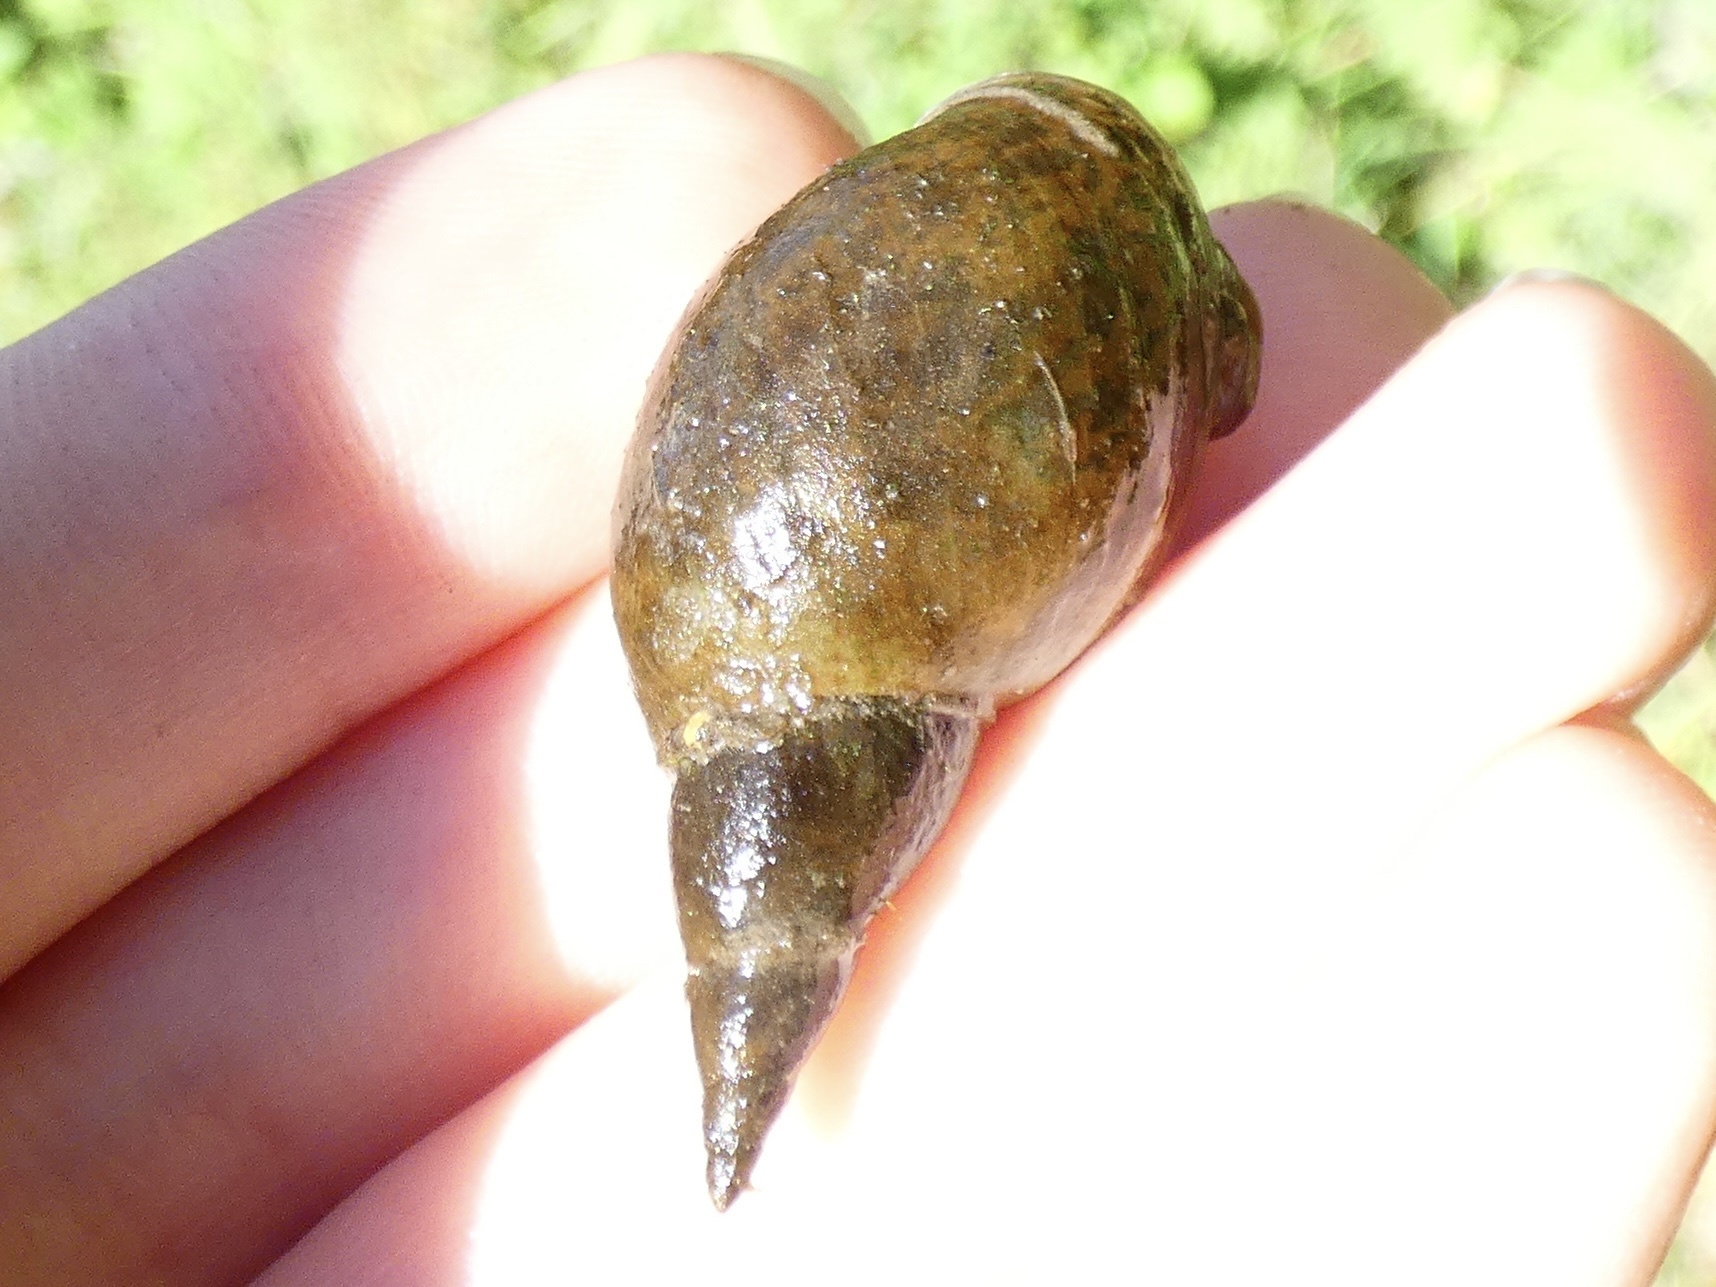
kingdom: Animalia
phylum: Mollusca
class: Gastropoda
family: Lymnaeidae
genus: Lymnaea
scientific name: Lymnaea stagnalis
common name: Great pond snail
